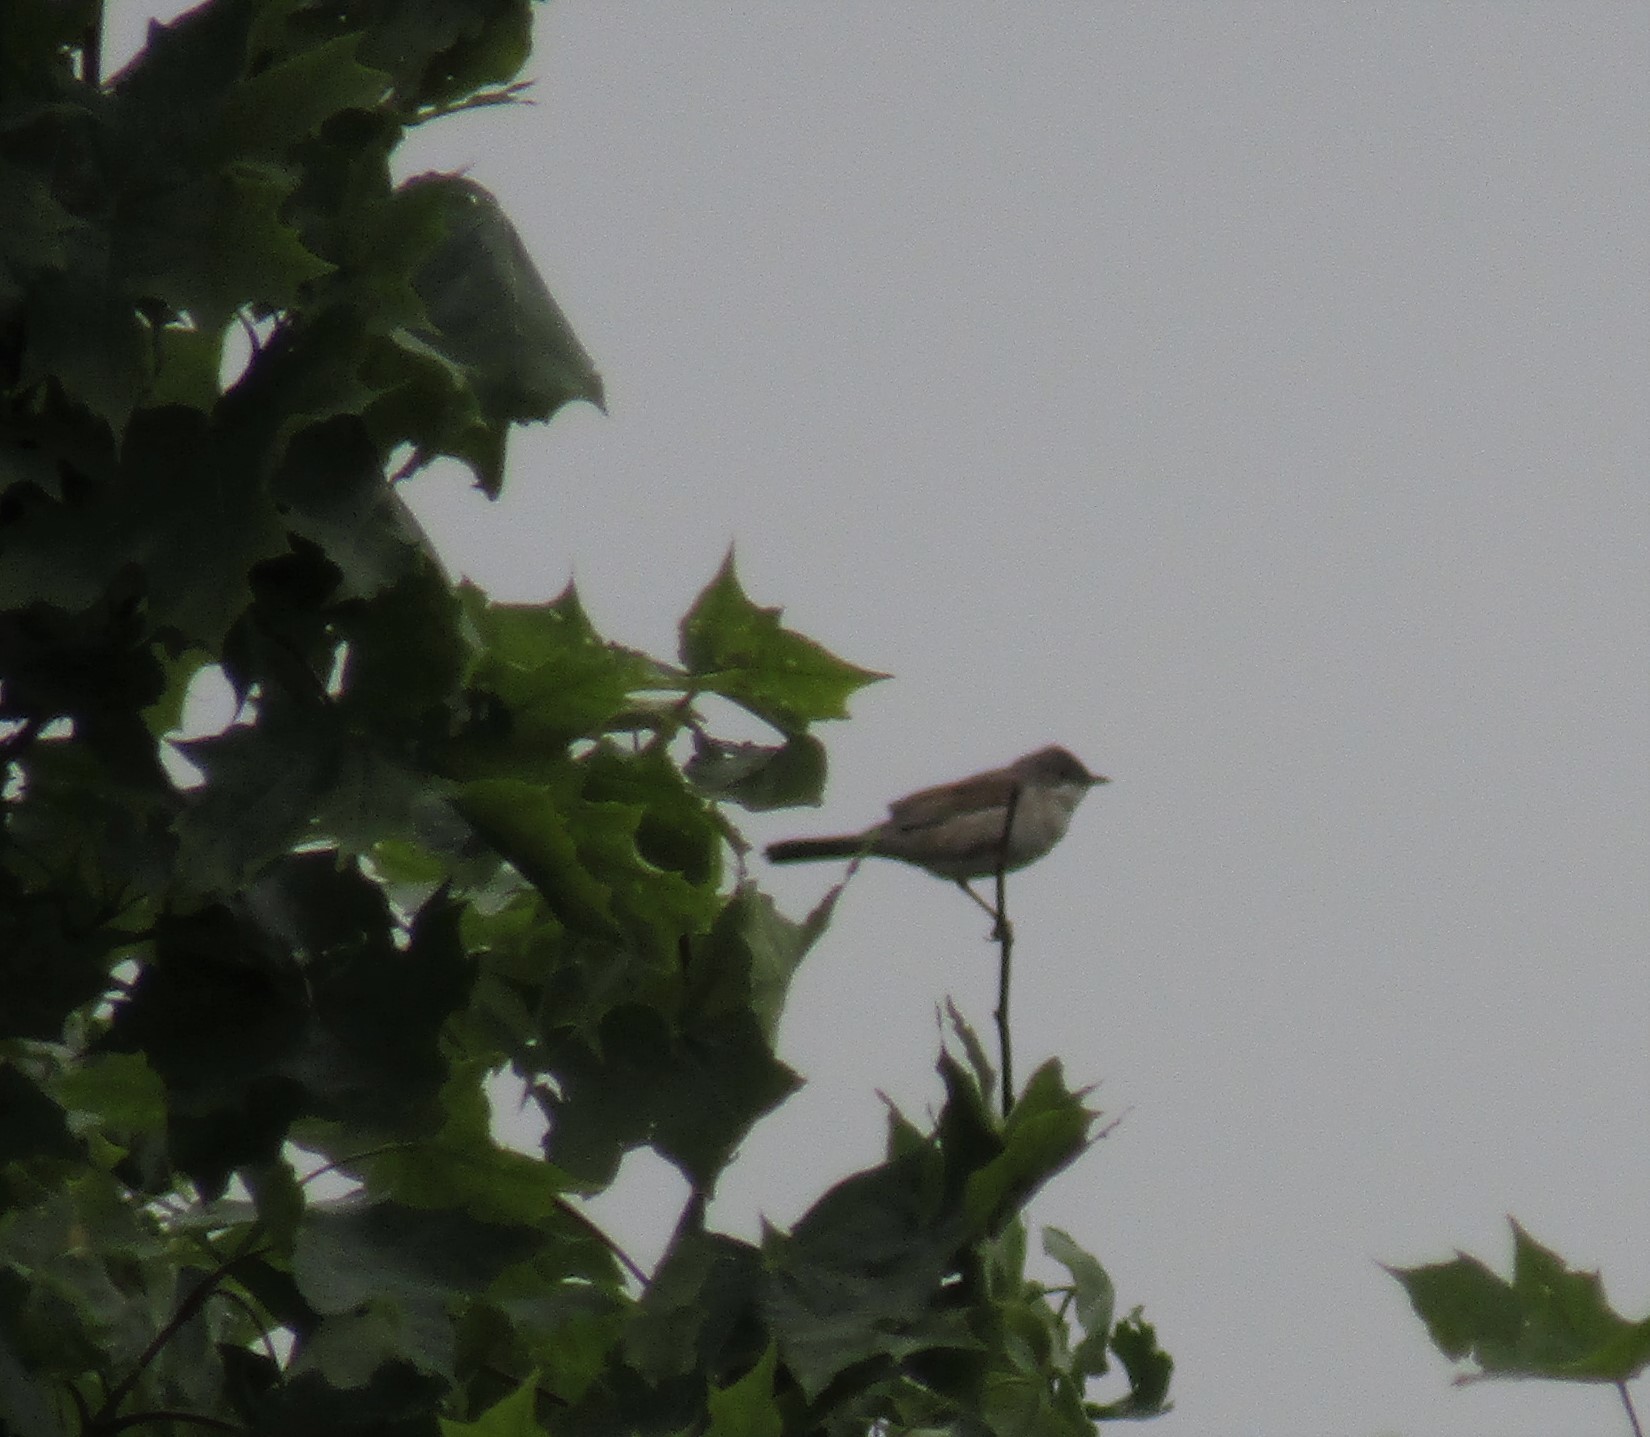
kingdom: Animalia
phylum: Chordata
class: Aves
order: Passeriformes
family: Sylviidae
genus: Sylvia
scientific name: Sylvia communis
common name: Common whitethroat
